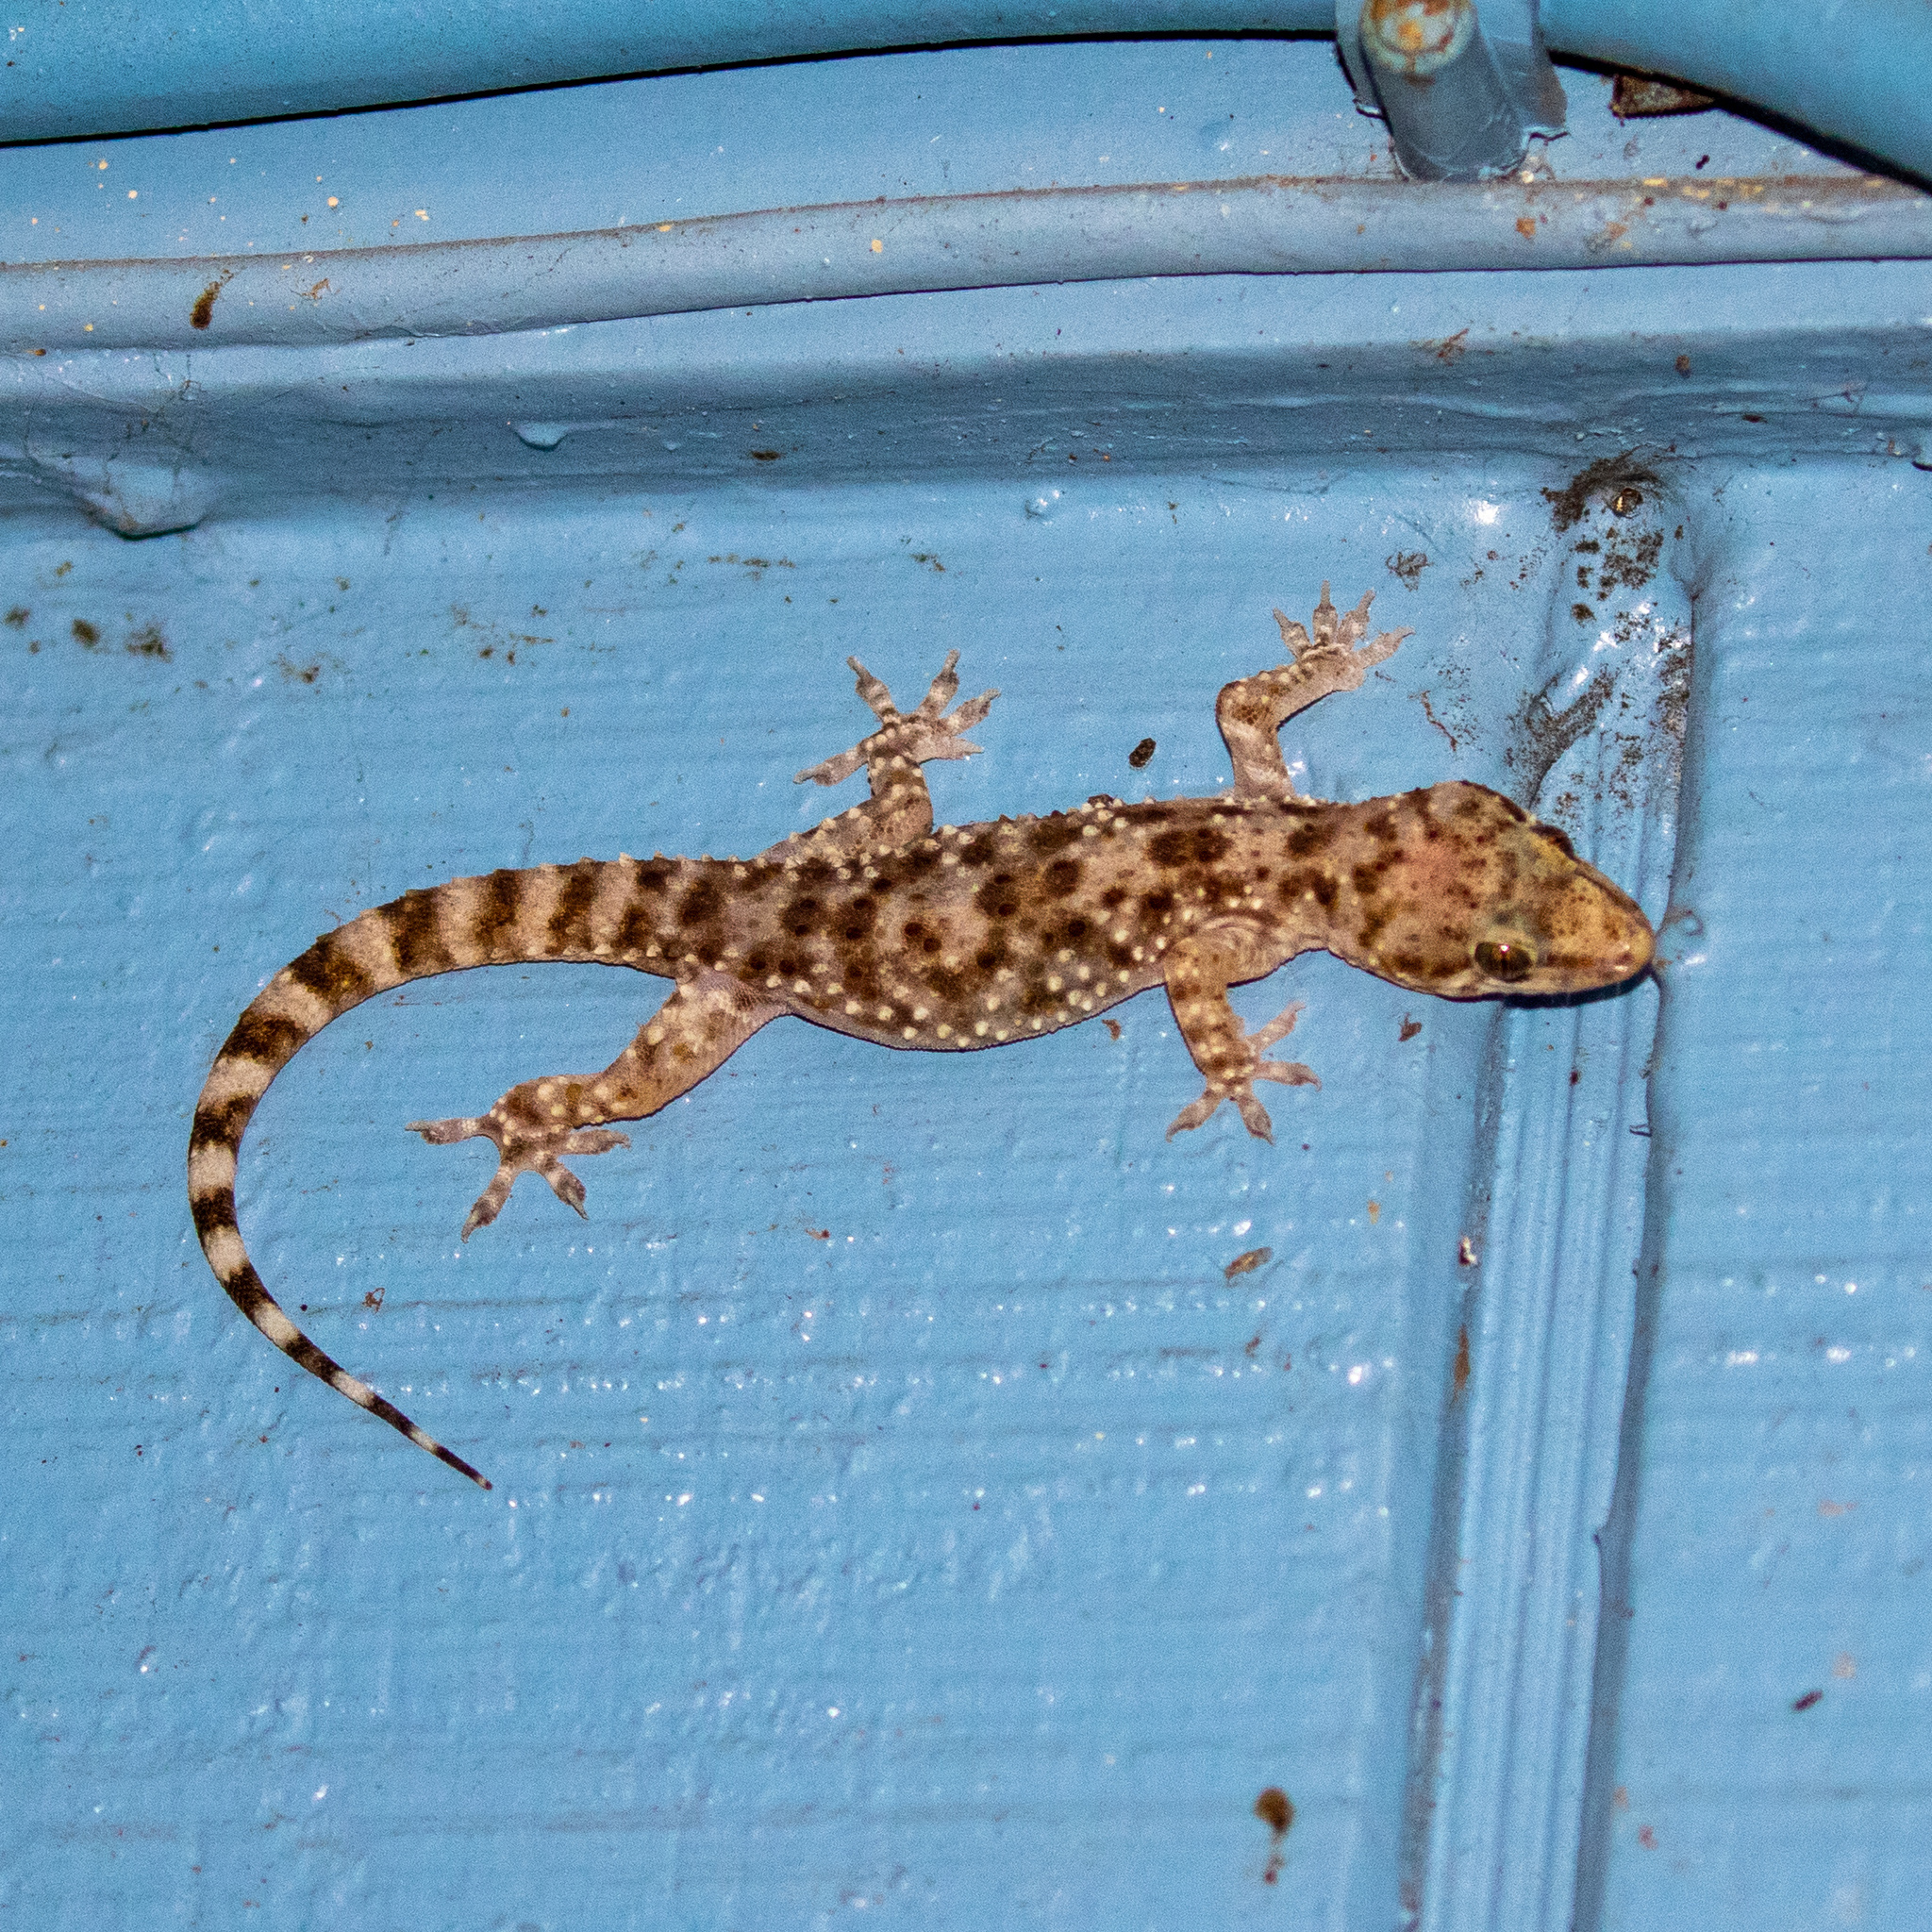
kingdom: Animalia
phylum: Chordata
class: Squamata
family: Gekkonidae
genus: Hemidactylus
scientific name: Hemidactylus turcicus
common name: Turkish gecko
